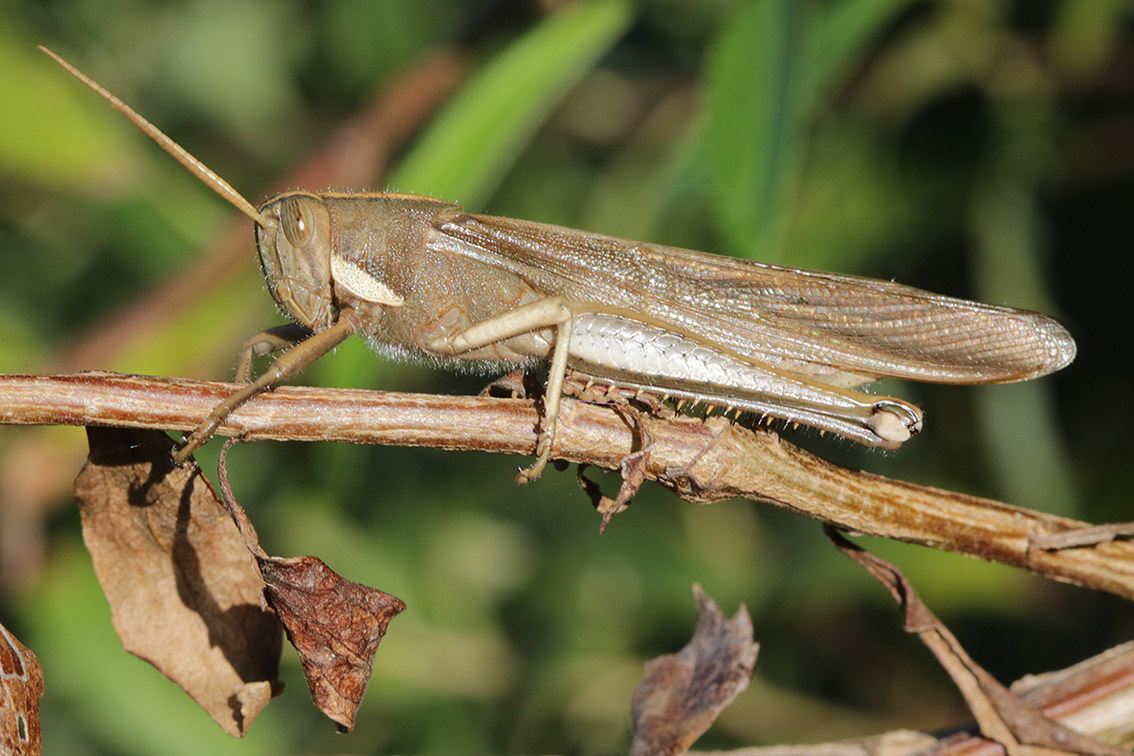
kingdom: Animalia
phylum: Arthropoda
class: Insecta
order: Orthoptera
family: Acrididae
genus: Schistocerca
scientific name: Schistocerca flavofasciata
